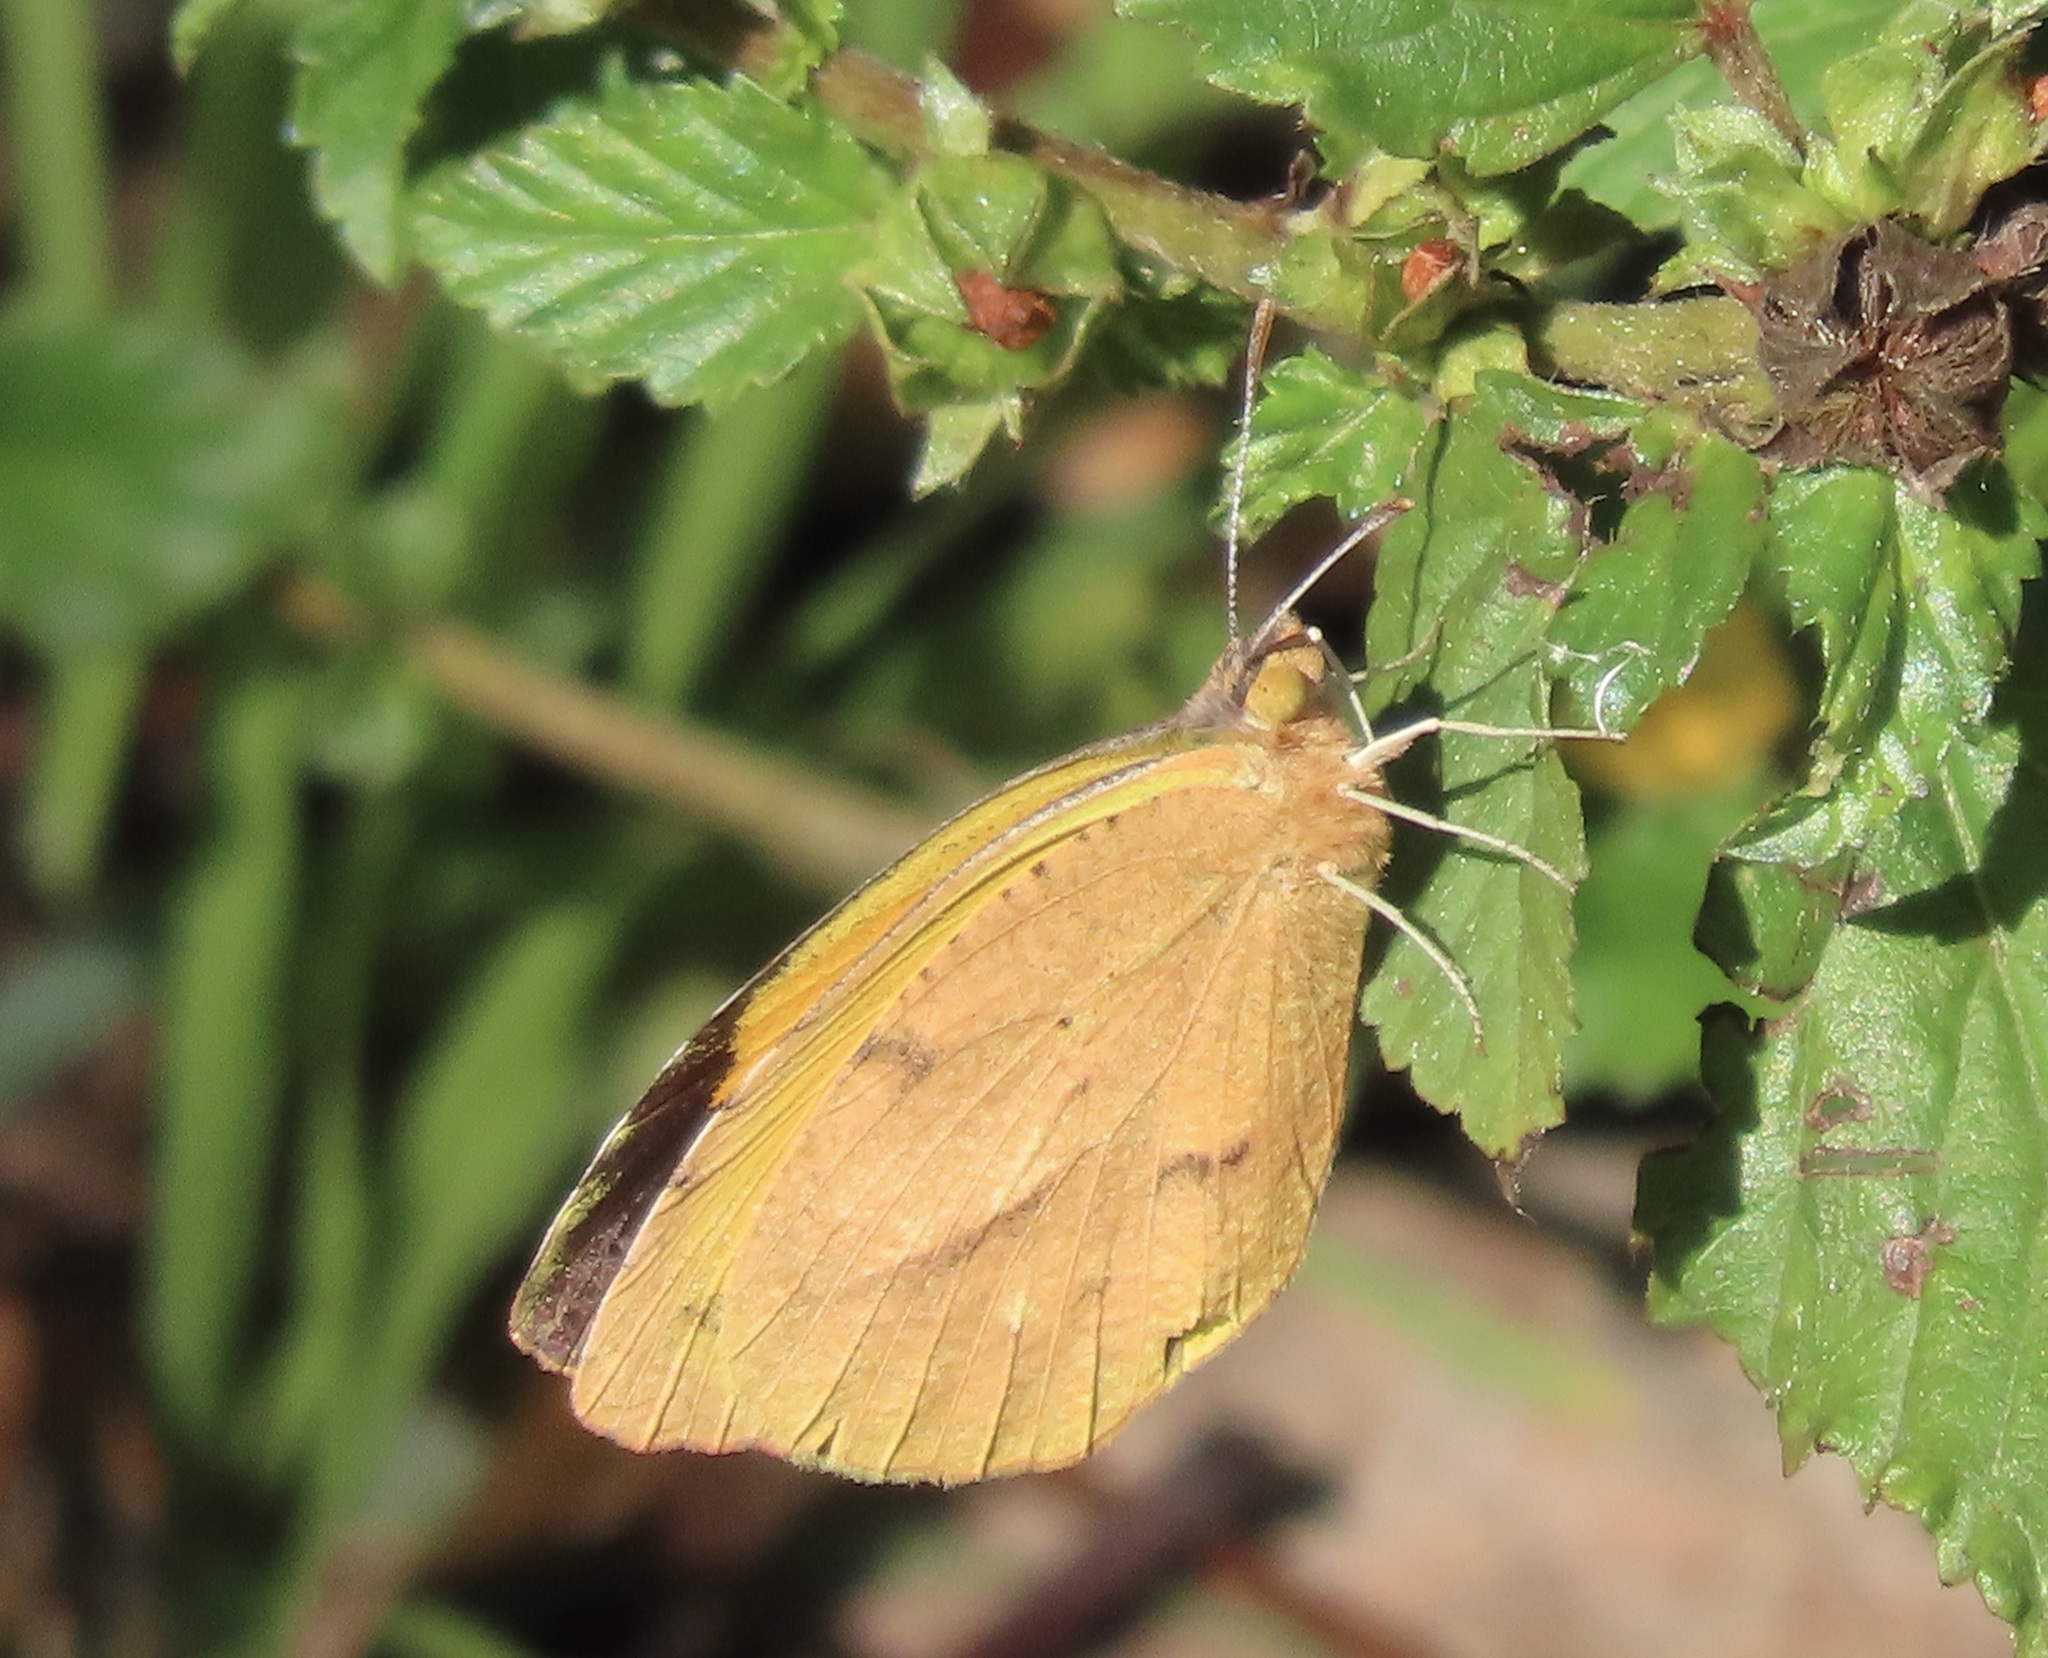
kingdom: Animalia
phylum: Arthropoda
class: Insecta
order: Lepidoptera
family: Pieridae
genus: Abaeis
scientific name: Abaeis nicippe
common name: Sleepy orange
